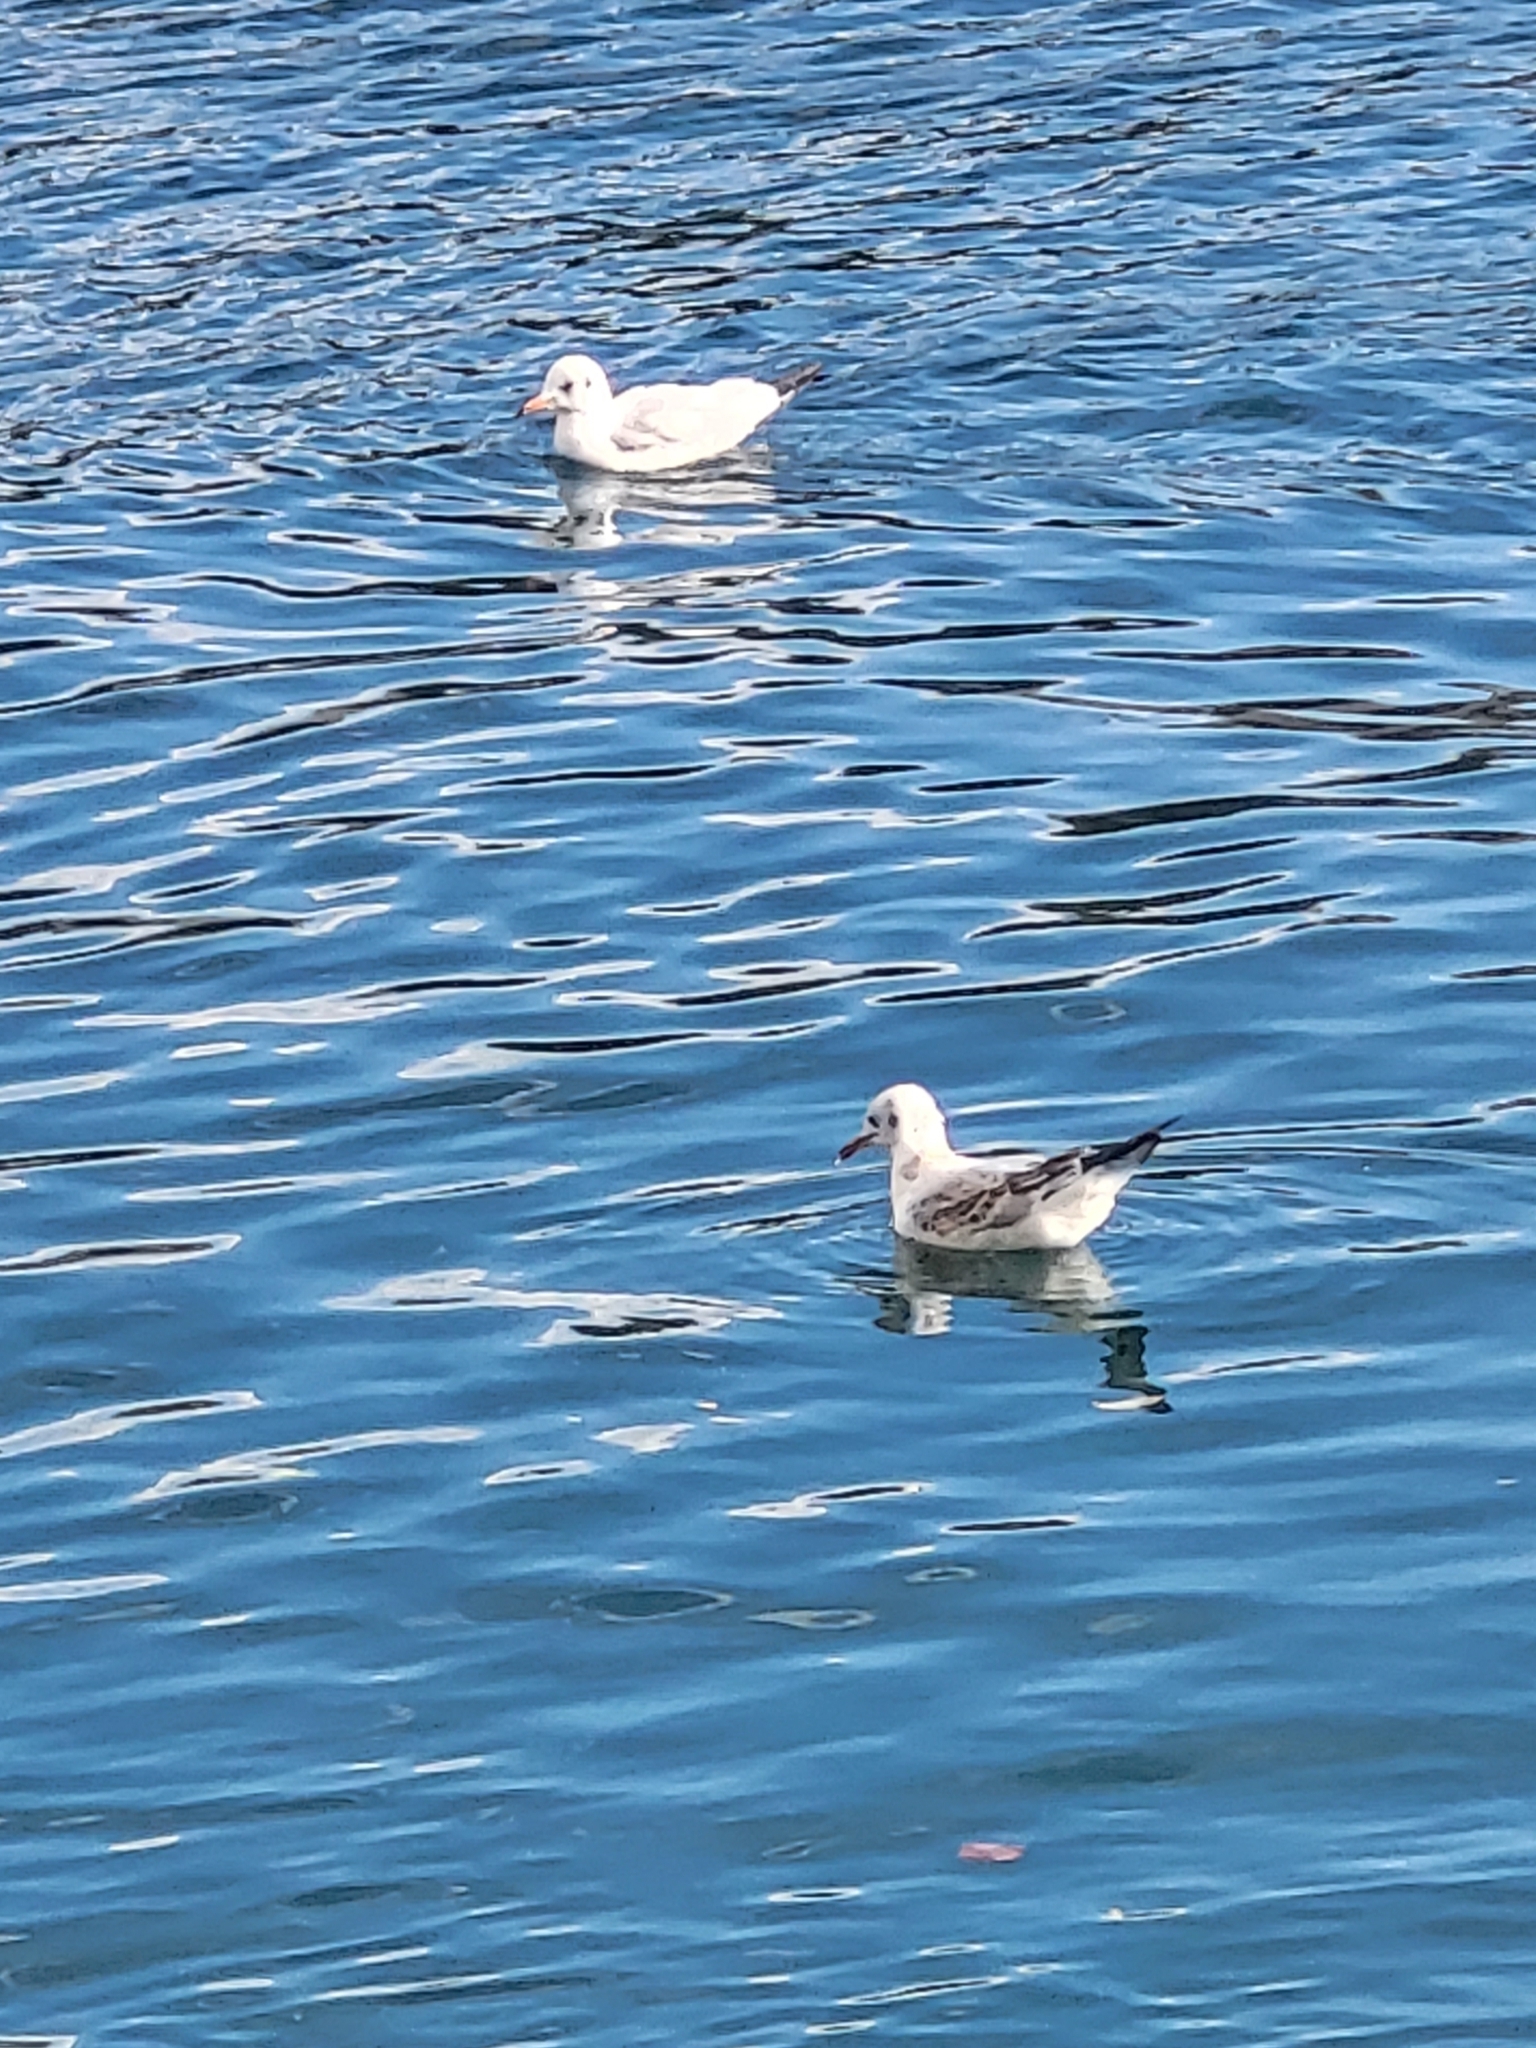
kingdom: Animalia
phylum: Chordata
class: Aves
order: Charadriiformes
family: Laridae
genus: Chroicocephalus
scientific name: Chroicocephalus ridibundus
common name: Black-headed gull
